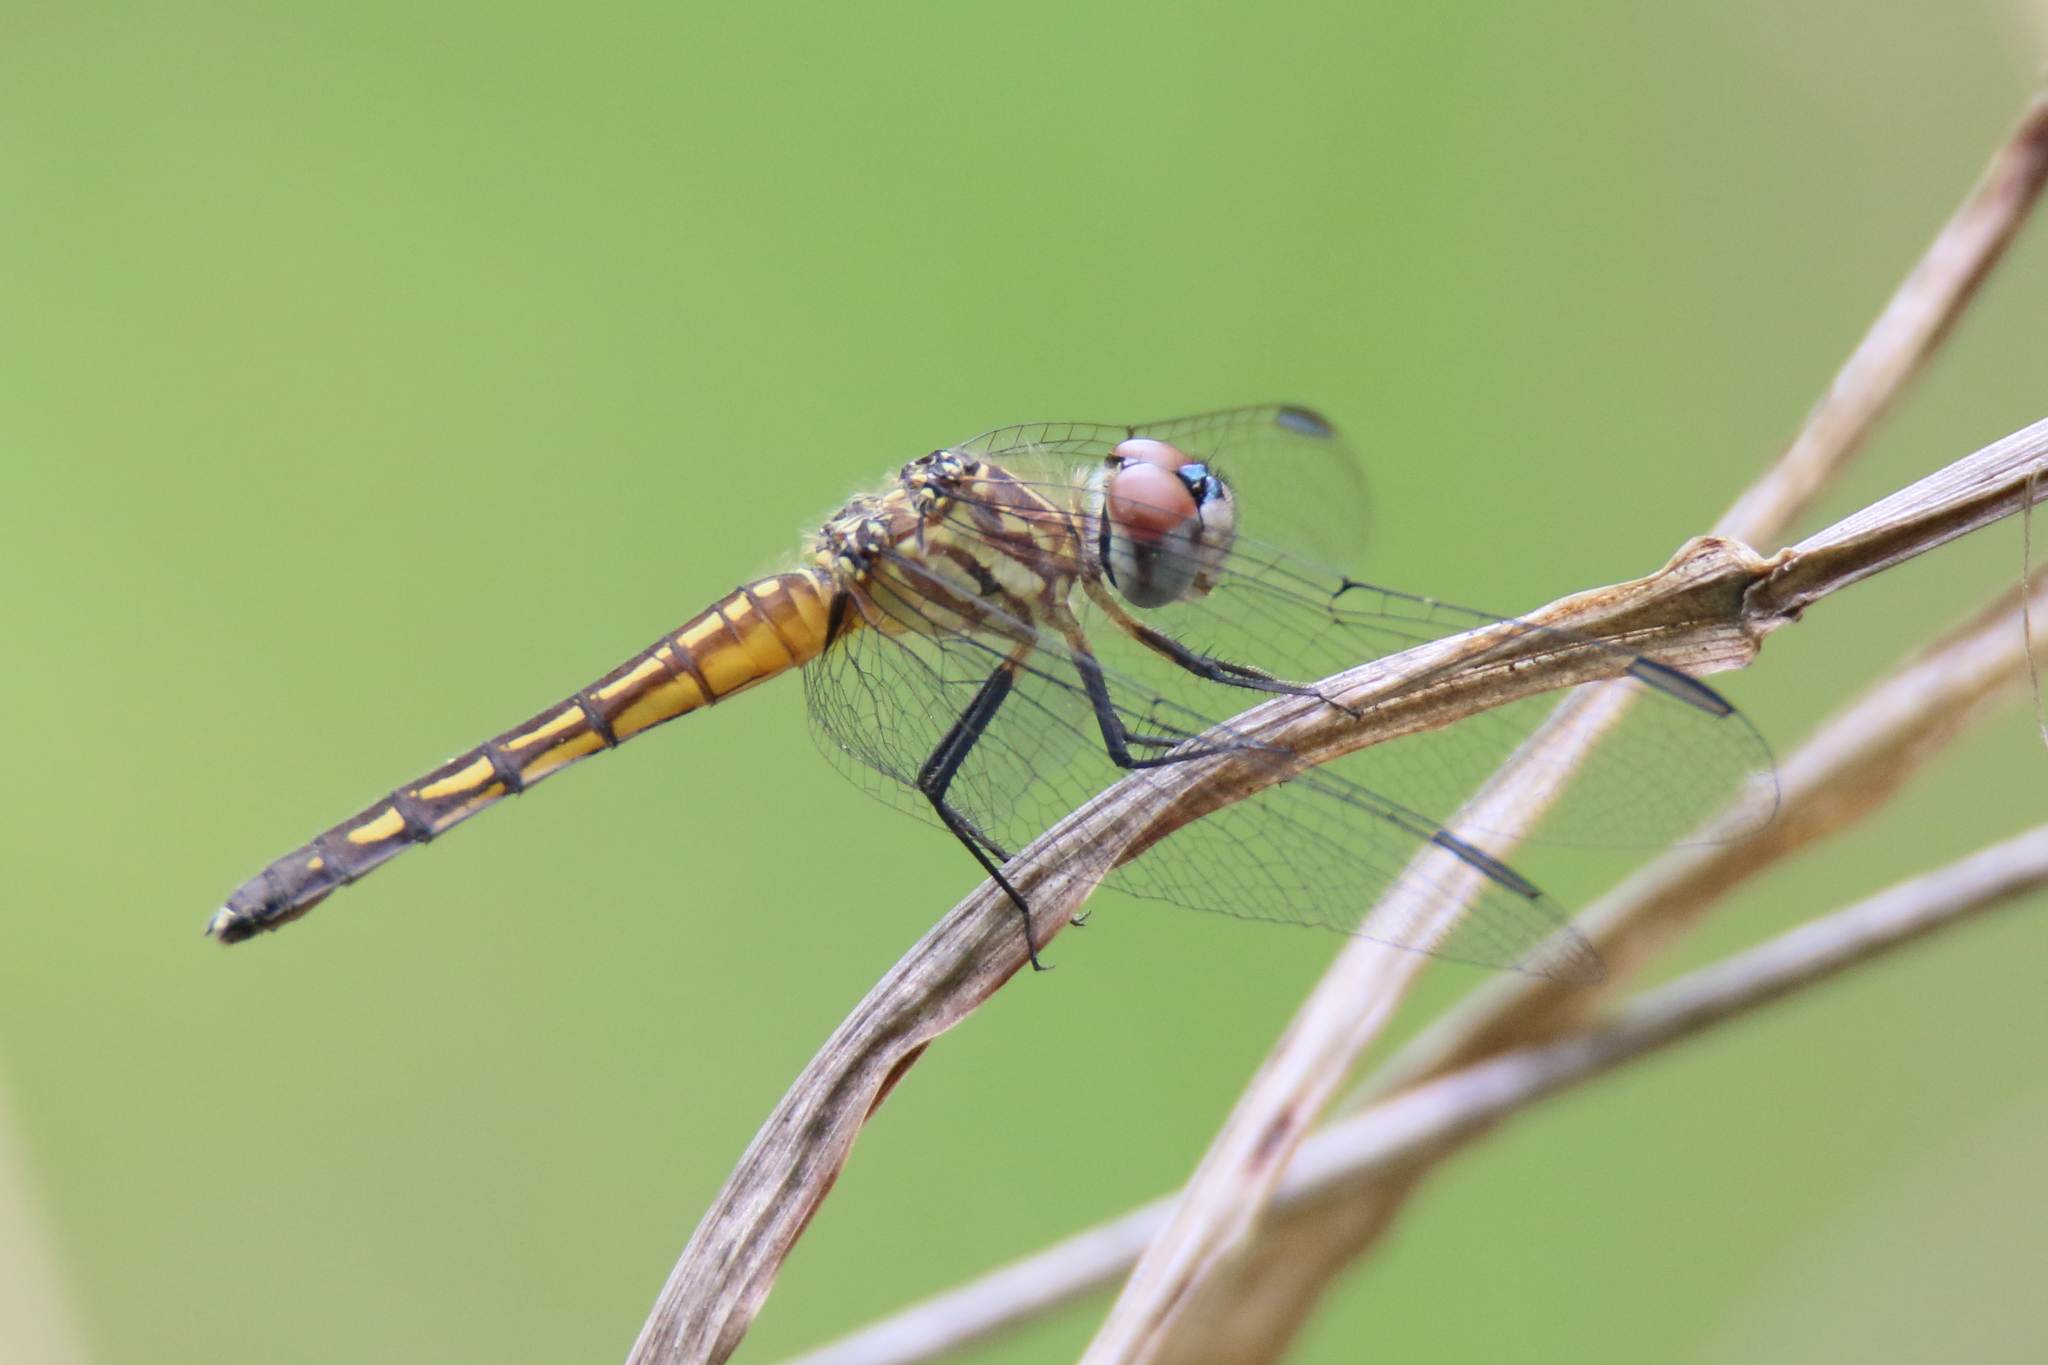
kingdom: Animalia
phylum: Arthropoda
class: Insecta
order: Odonata
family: Libellulidae
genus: Pachydiplax
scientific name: Pachydiplax longipennis
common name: Blue dasher
